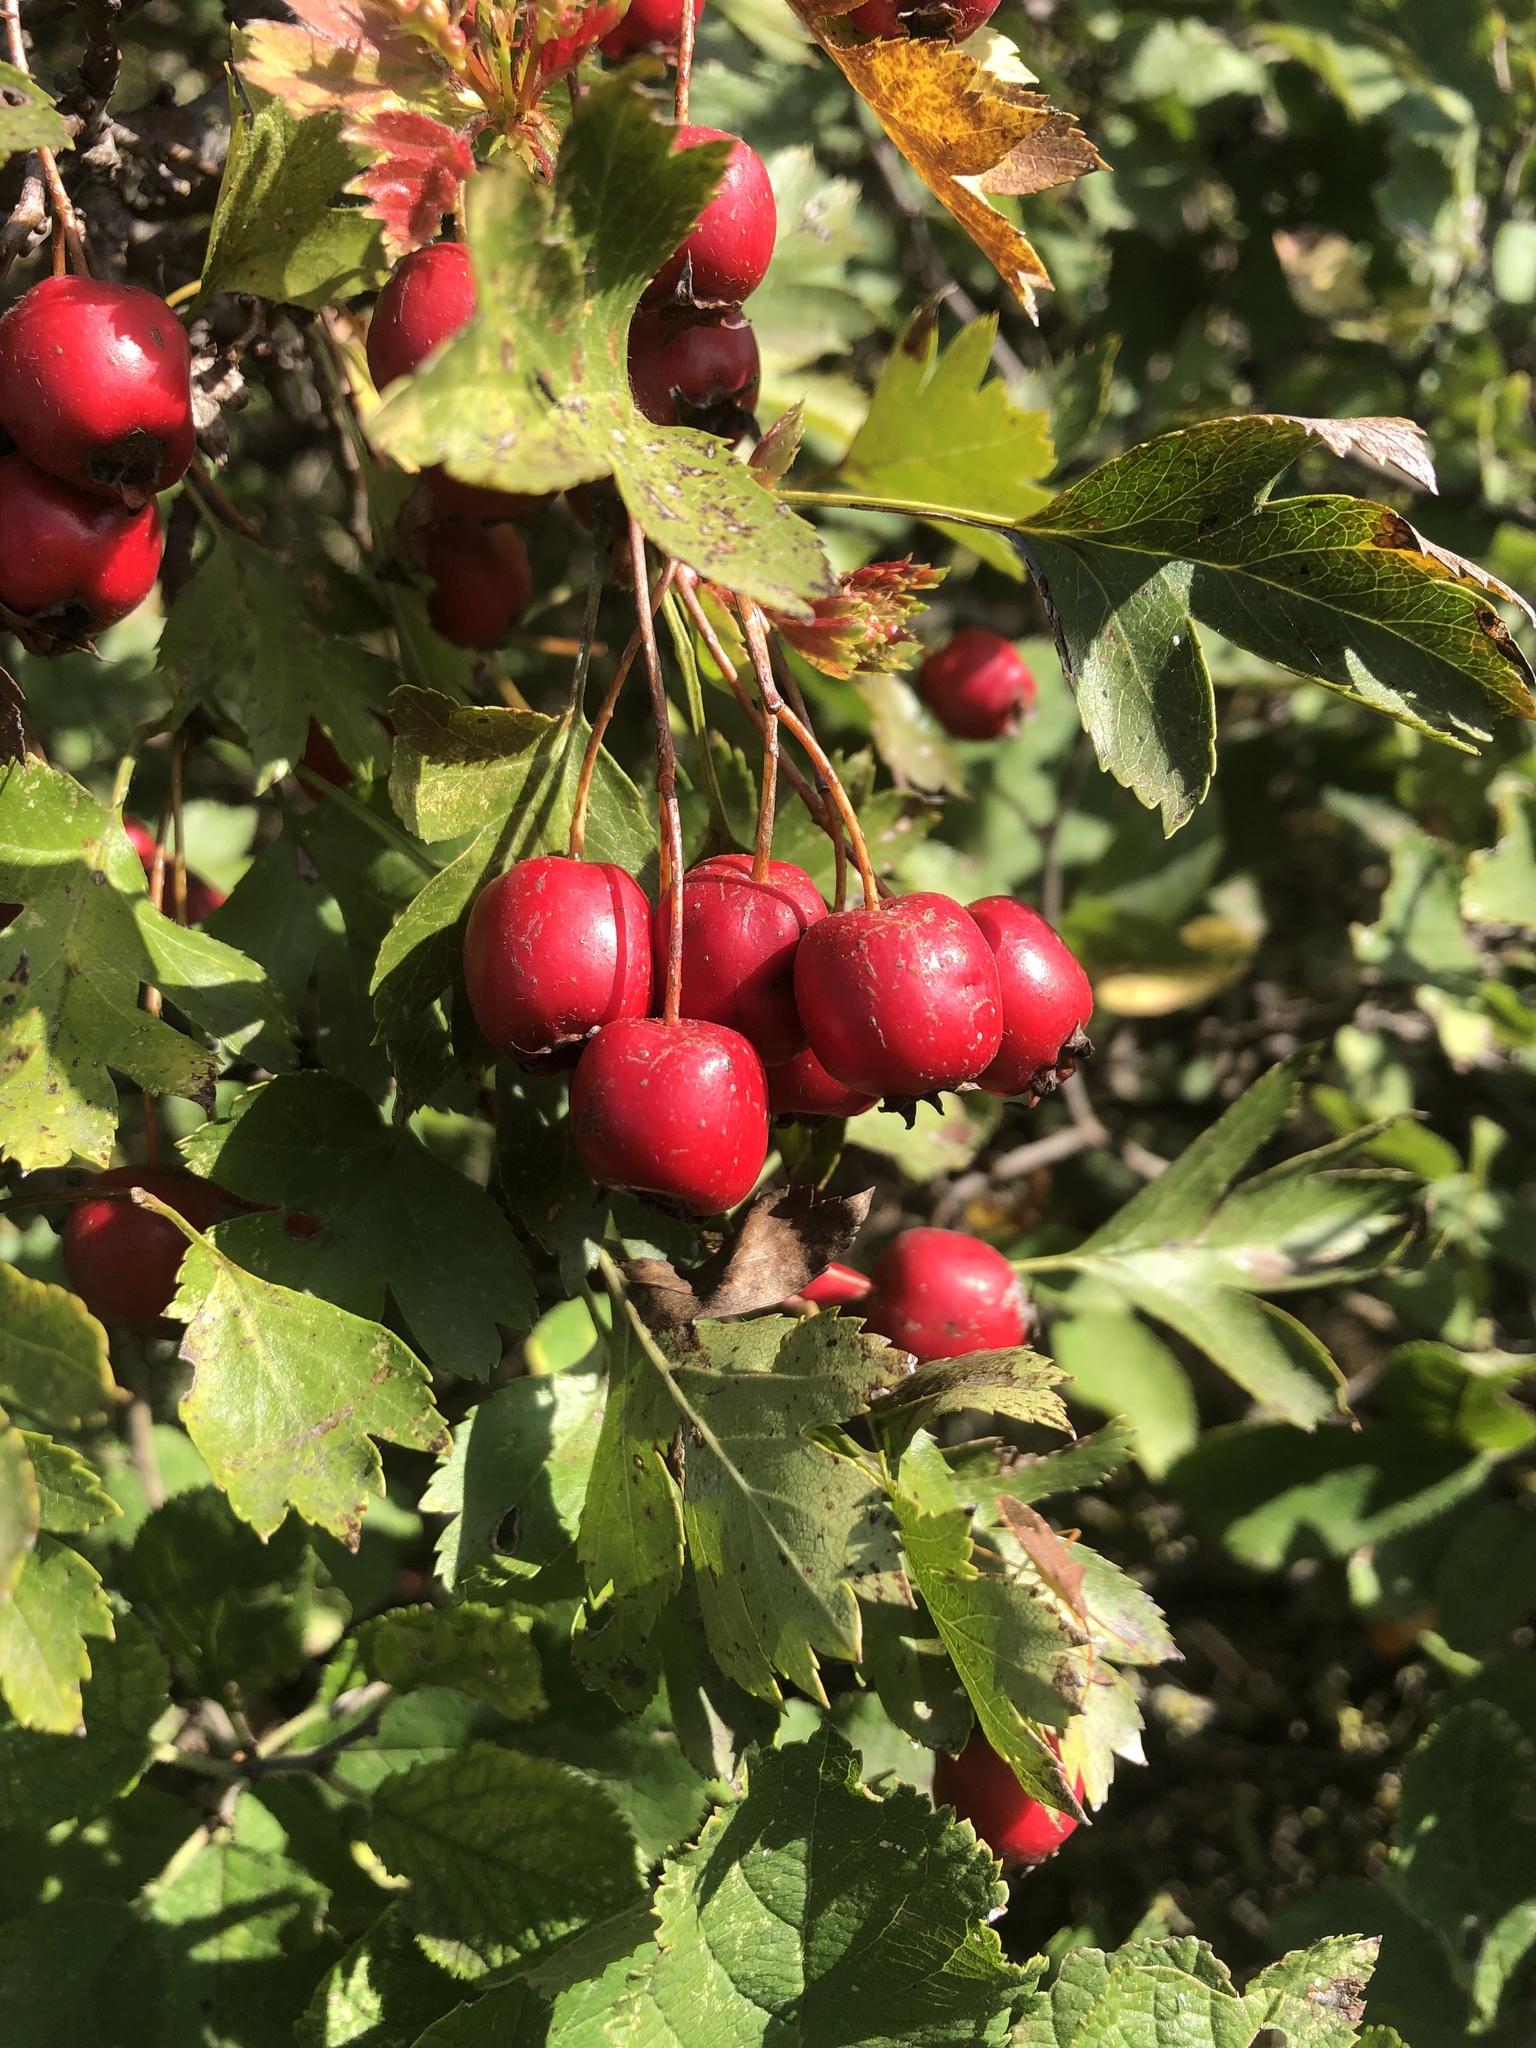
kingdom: Plantae
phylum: Tracheophyta
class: Magnoliopsida
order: Rosales
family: Rosaceae
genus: Crataegus
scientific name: Crataegus monogyna
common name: Hawthorn
